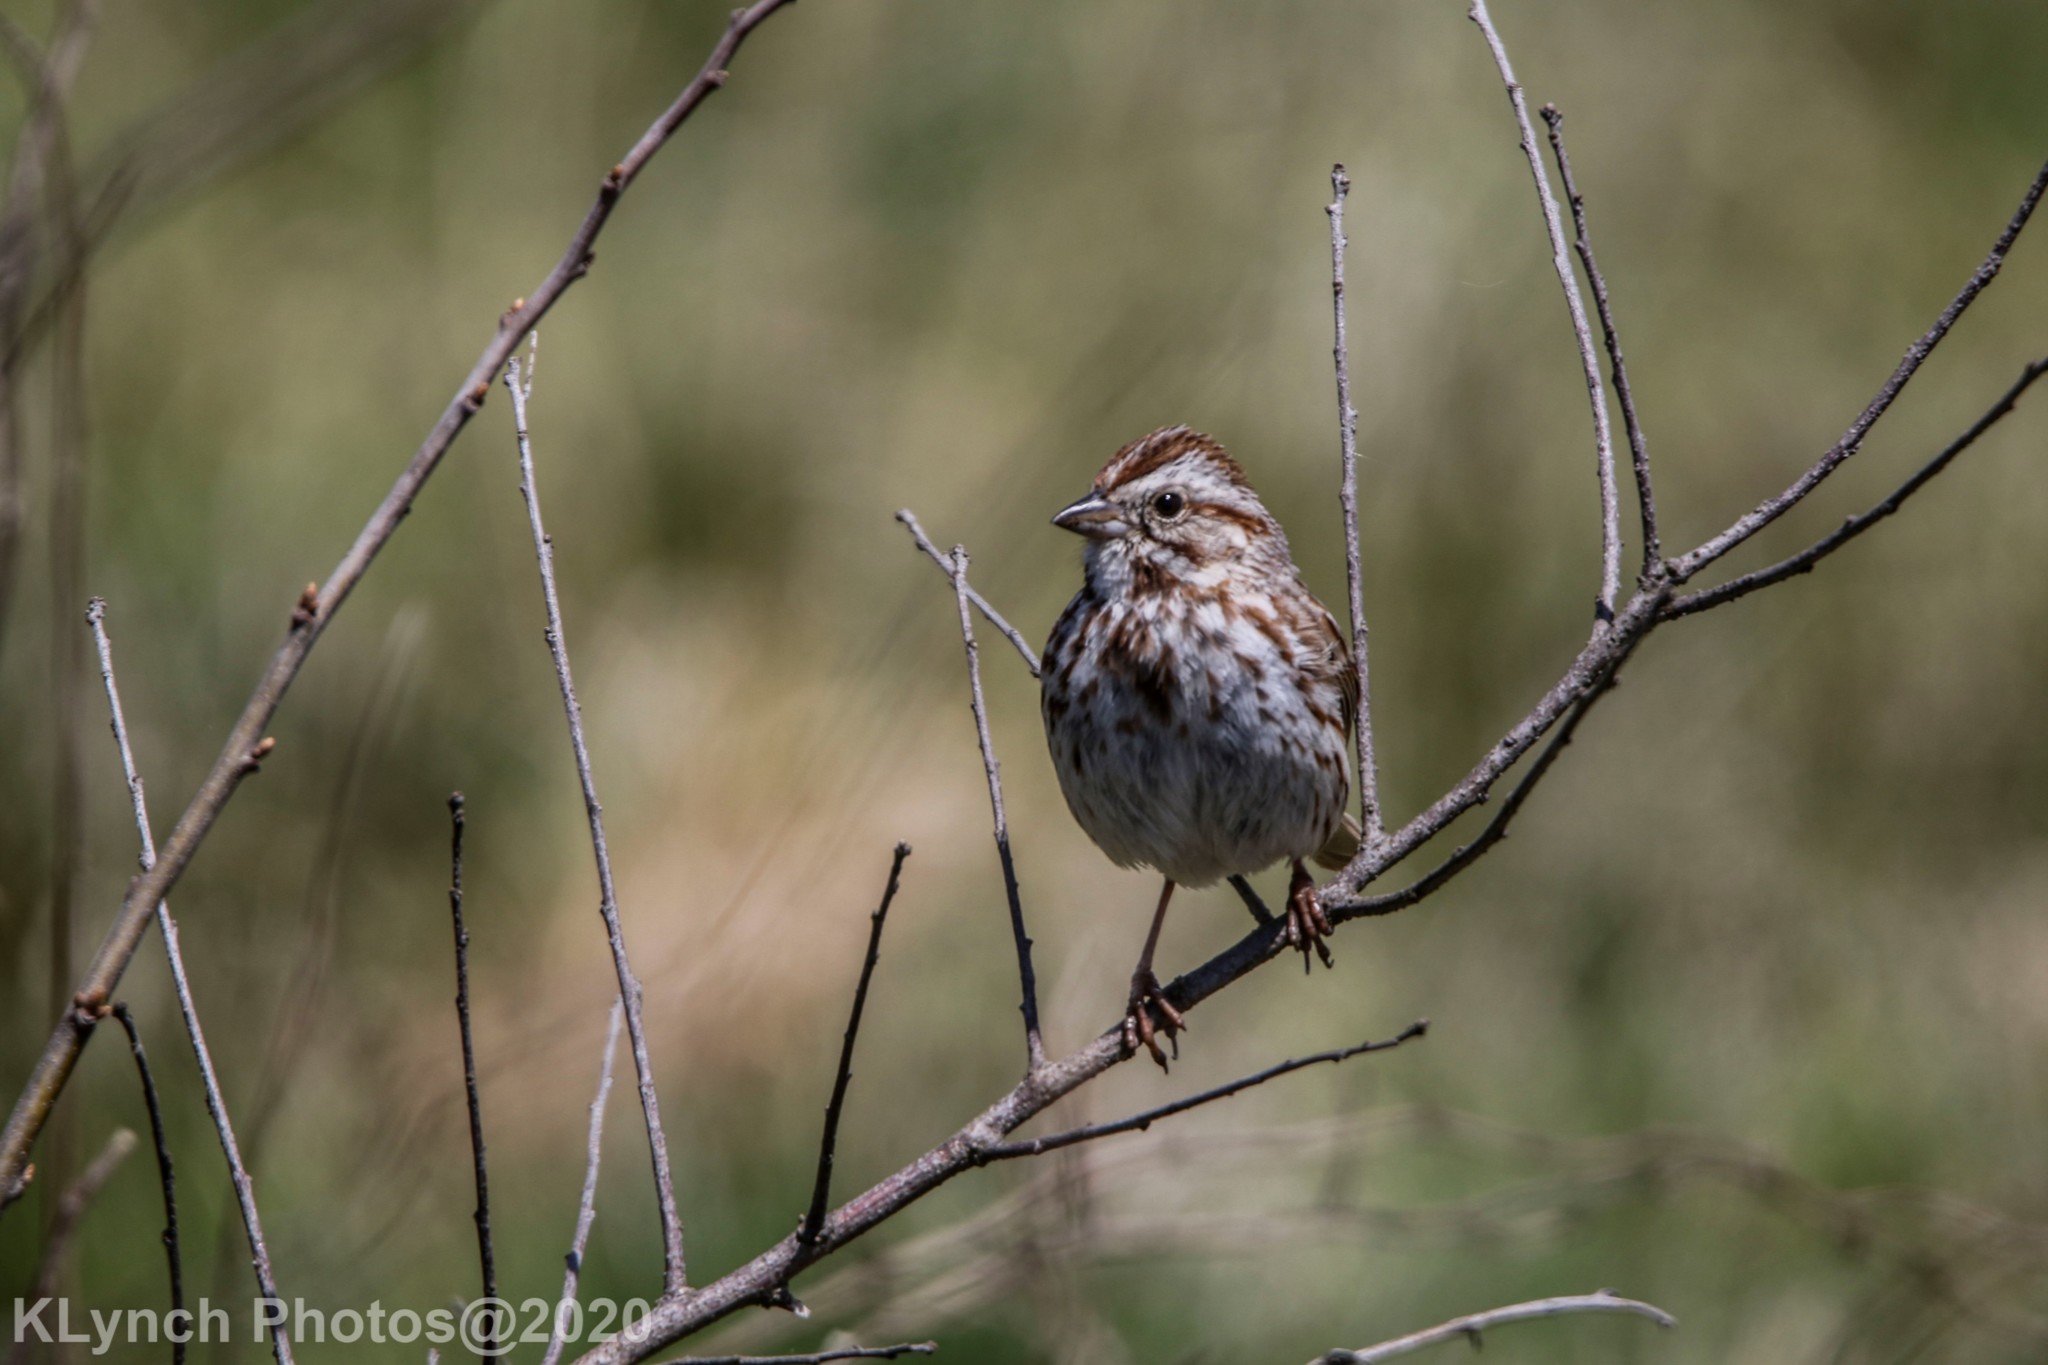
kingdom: Animalia
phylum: Chordata
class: Aves
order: Passeriformes
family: Passerellidae
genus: Melospiza
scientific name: Melospiza melodia
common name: Song sparrow
